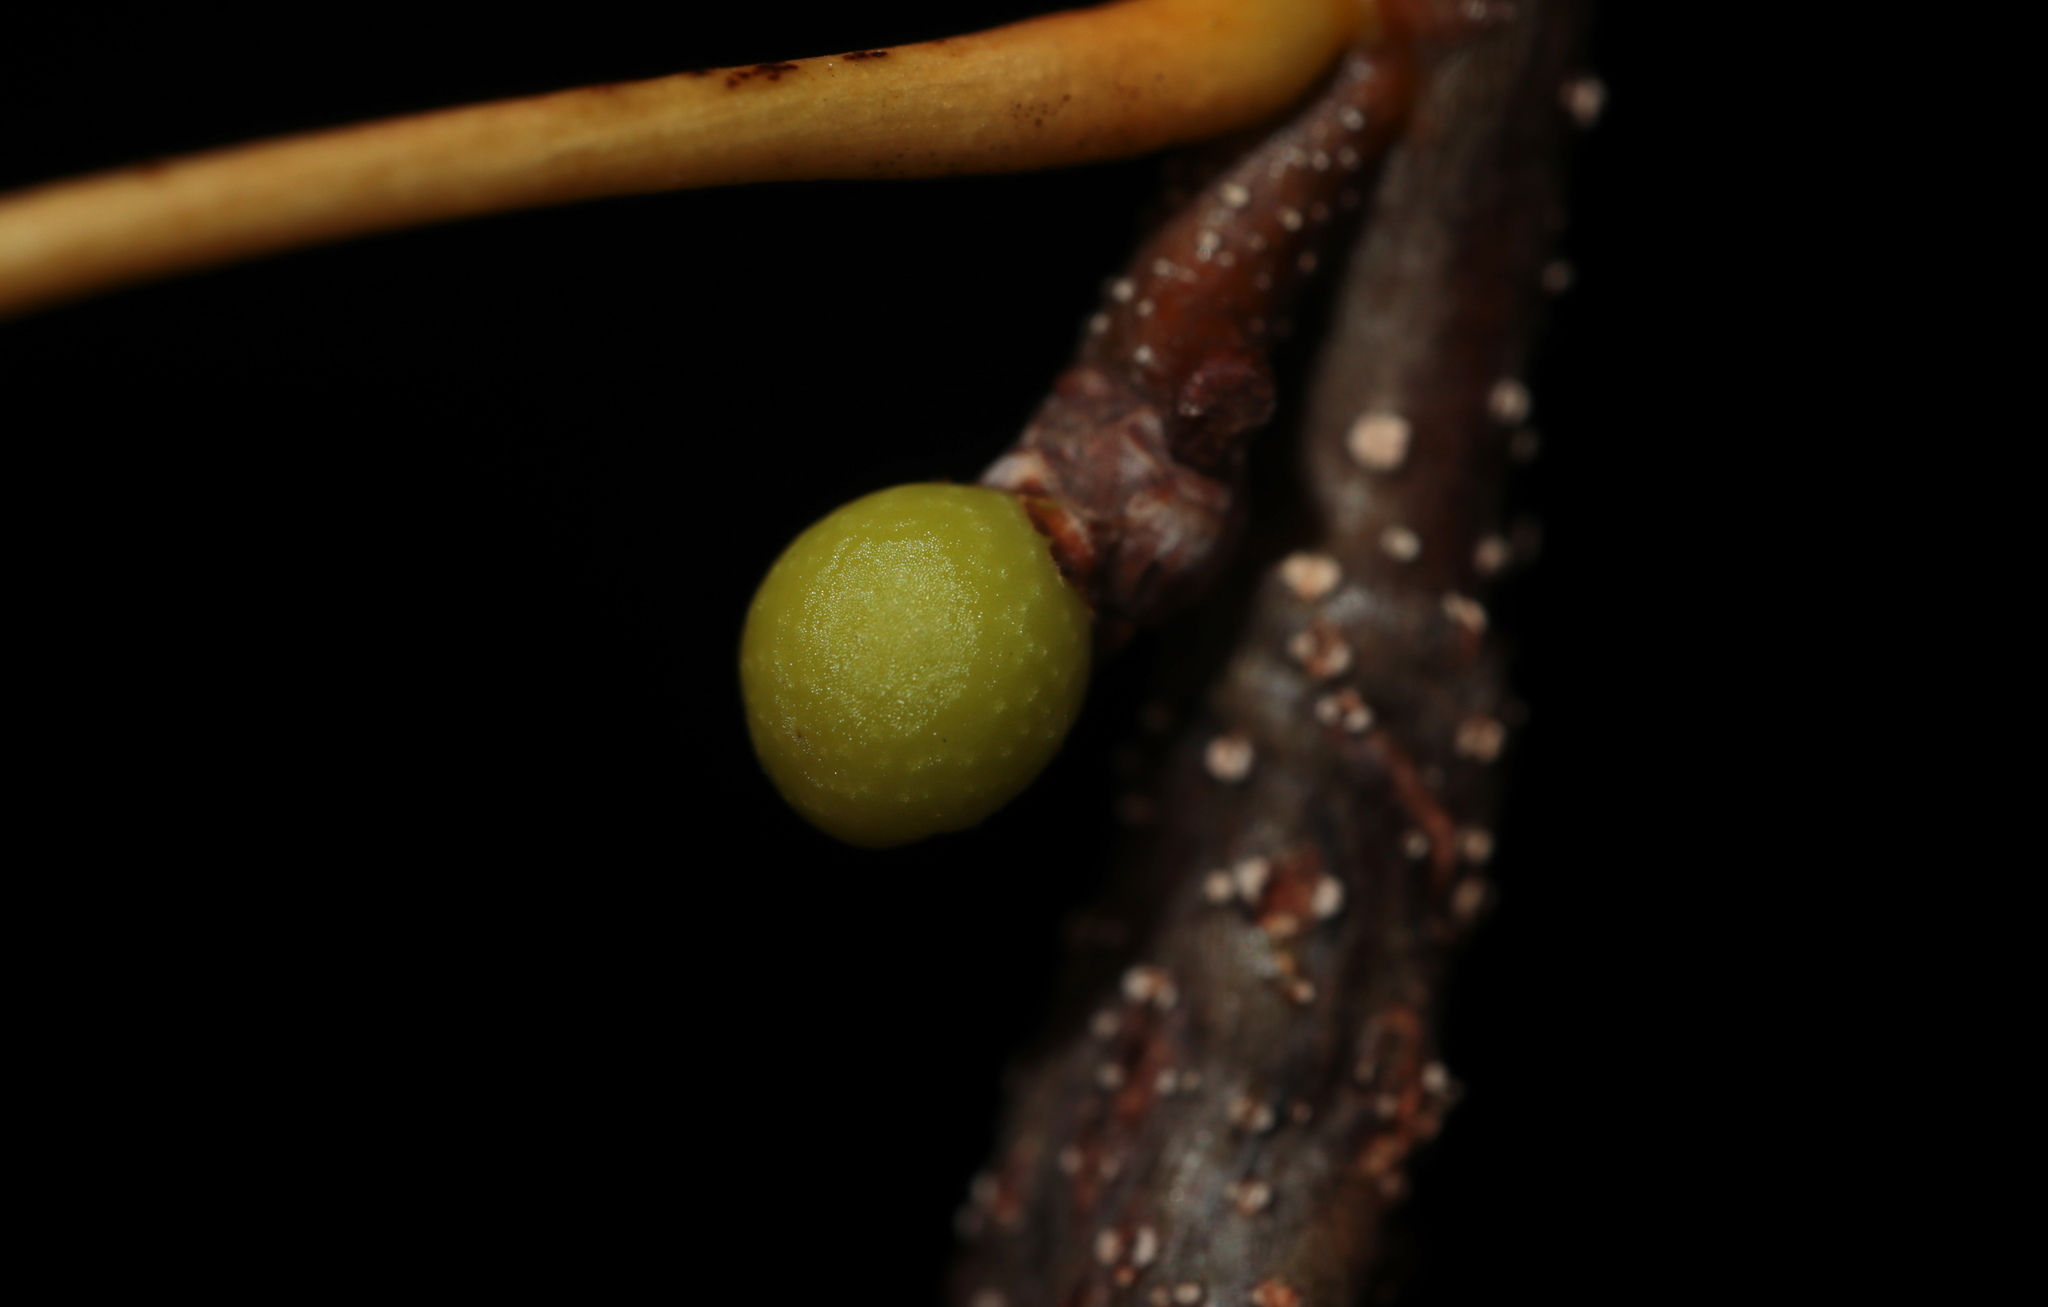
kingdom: Animalia
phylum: Arthropoda
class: Insecta
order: Hymenoptera
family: Cynipidae
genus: Callirhytis
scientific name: Callirhytis
